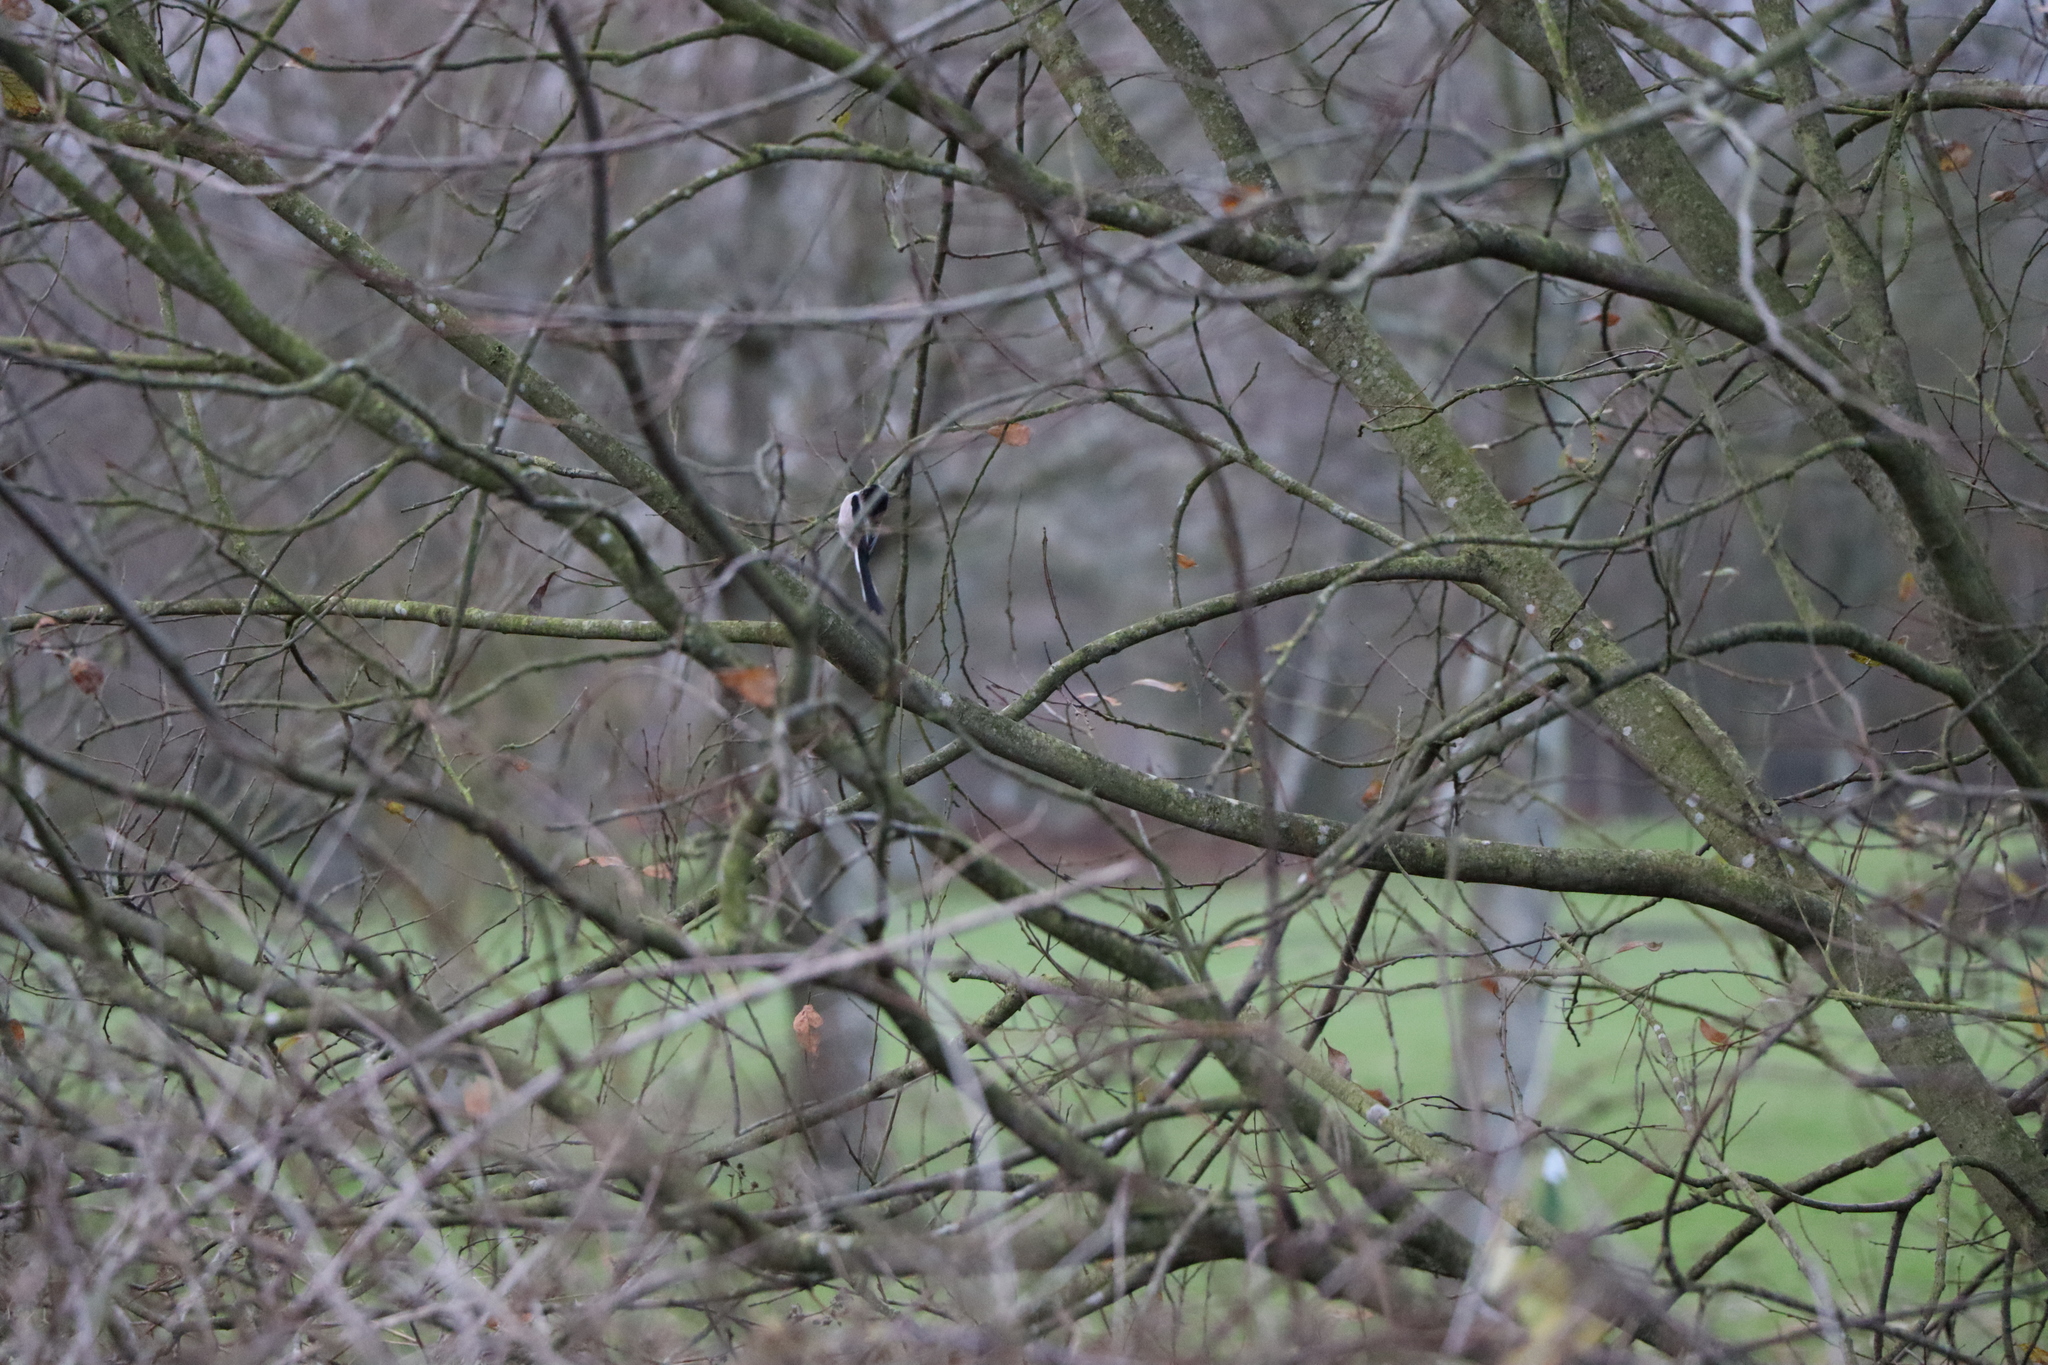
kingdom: Animalia
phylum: Chordata
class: Aves
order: Passeriformes
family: Aegithalidae
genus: Aegithalos
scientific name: Aegithalos caudatus
